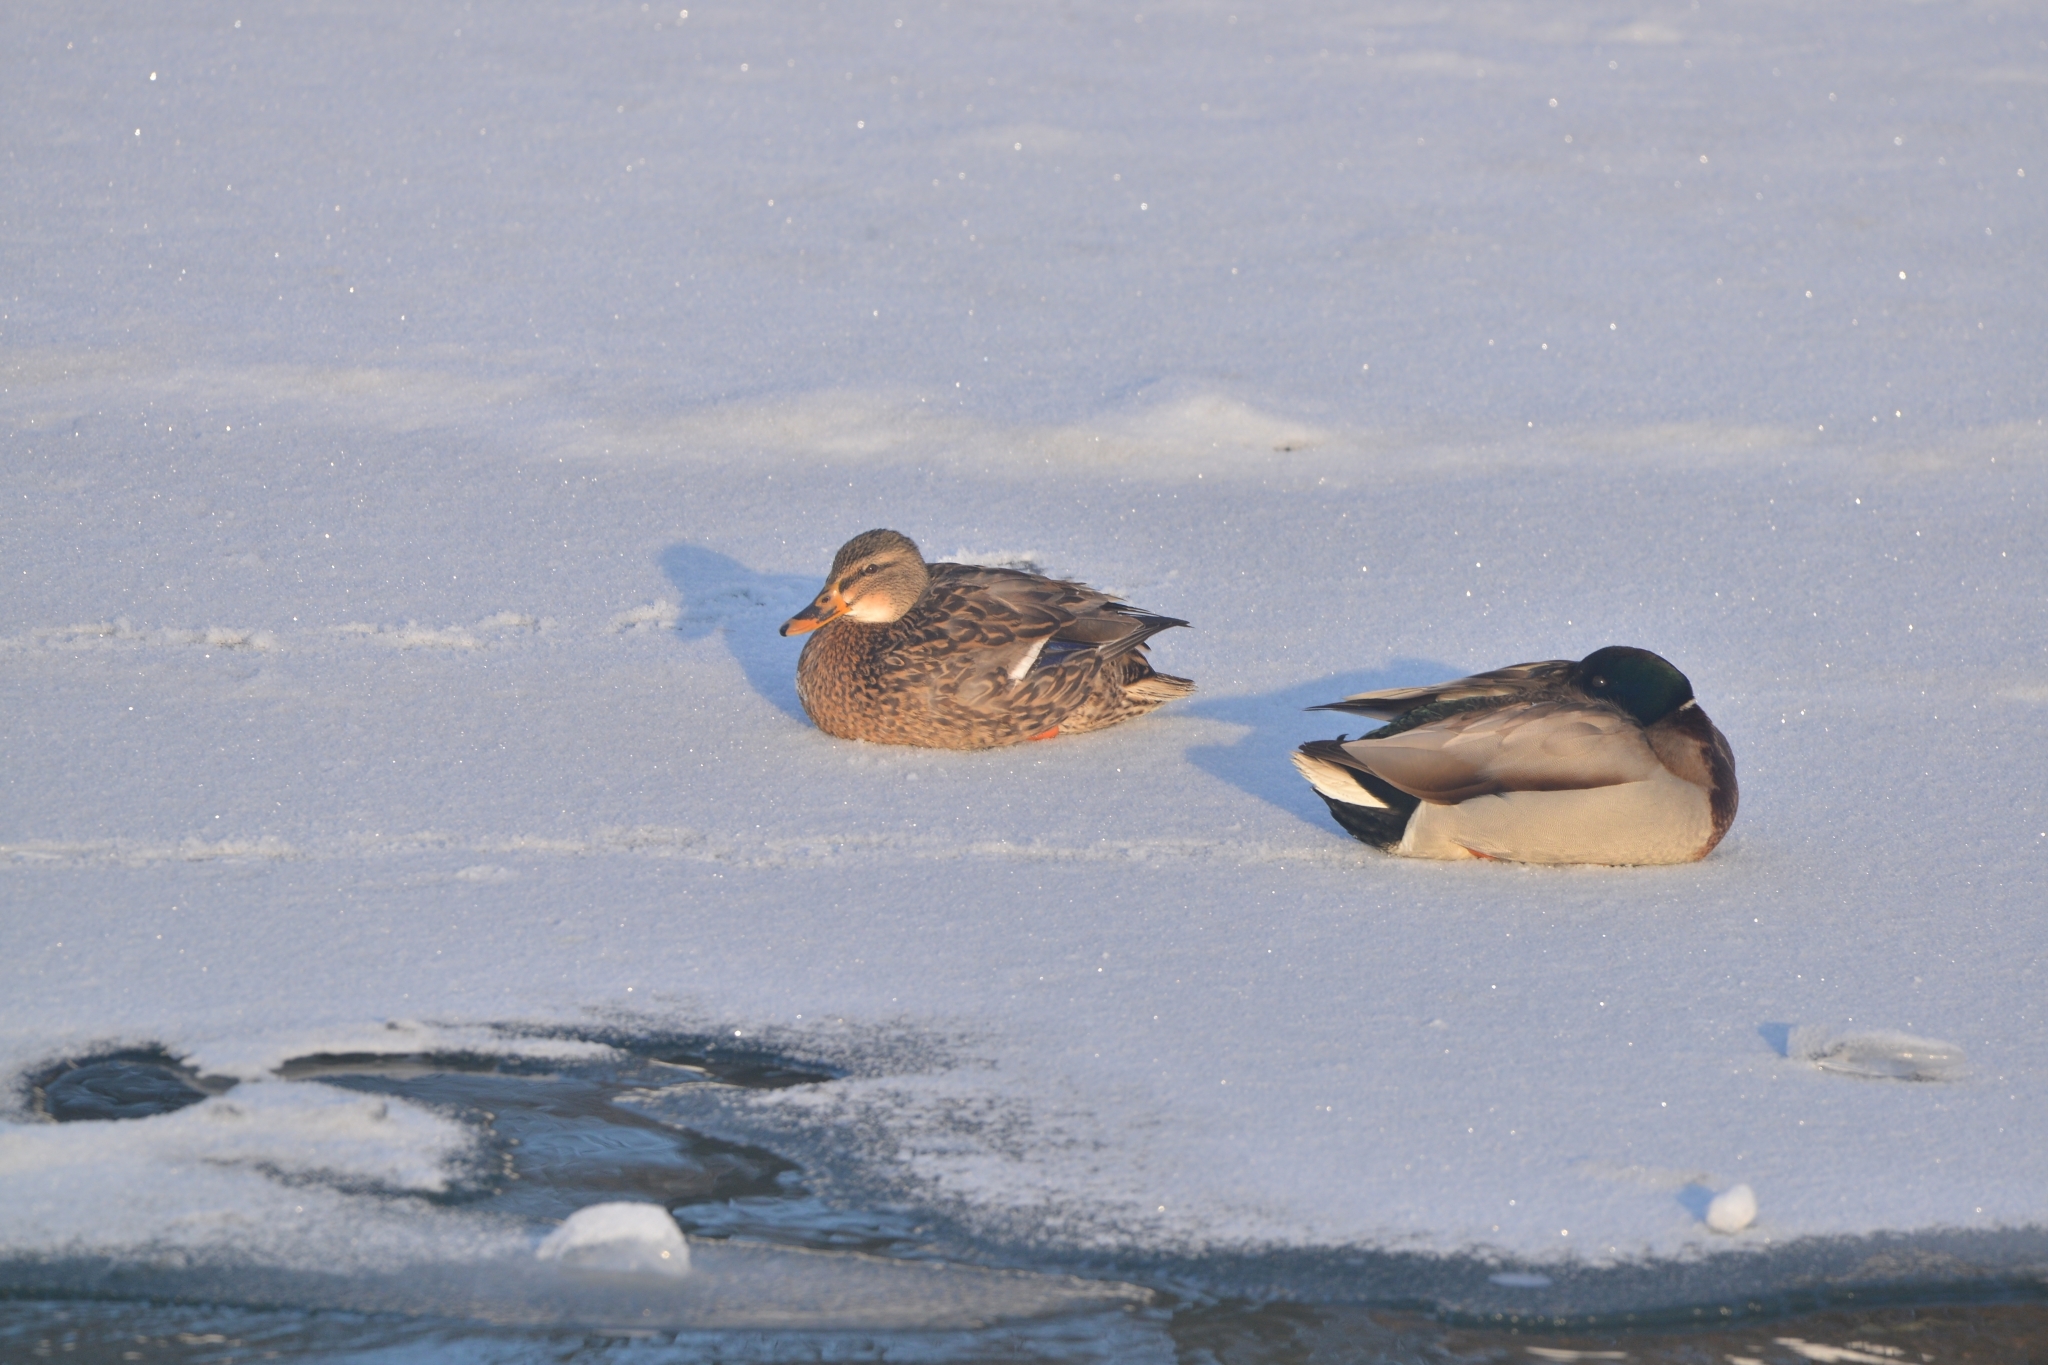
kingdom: Animalia
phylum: Chordata
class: Aves
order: Anseriformes
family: Anatidae
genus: Anas
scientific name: Anas platyrhynchos
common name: Mallard
